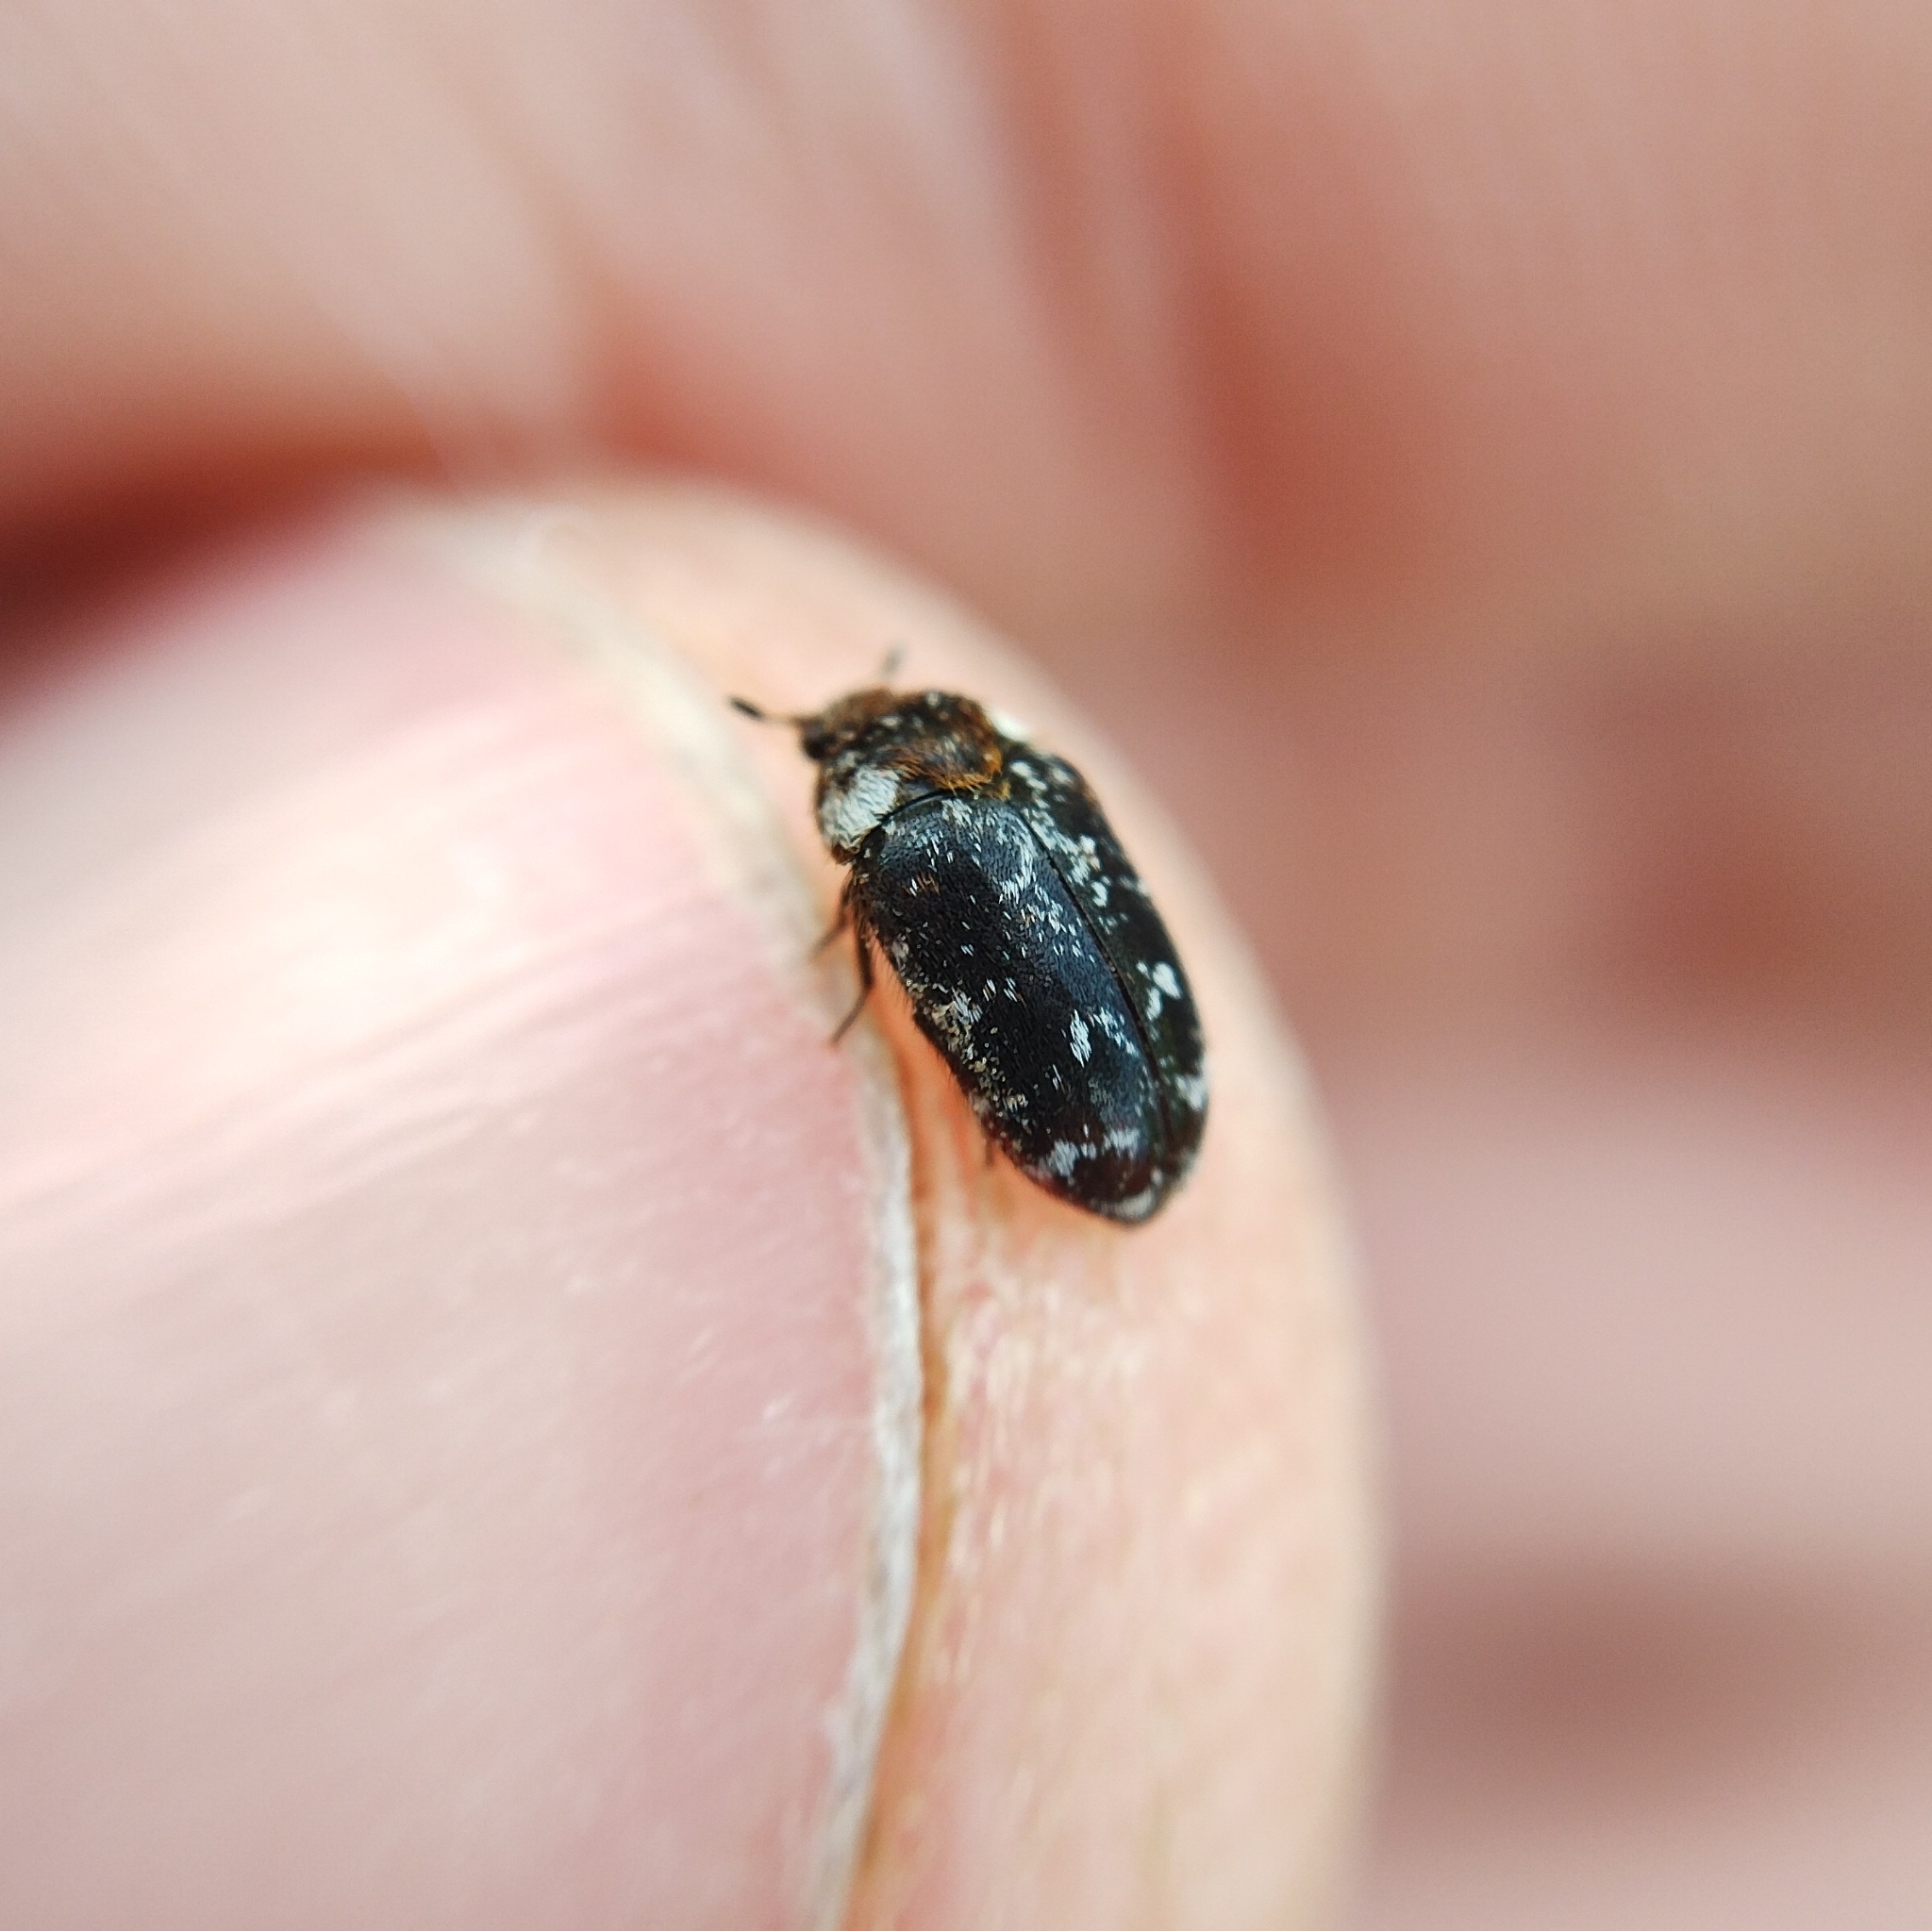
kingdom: Animalia
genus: Paranovelsis
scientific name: Paranovelsis
